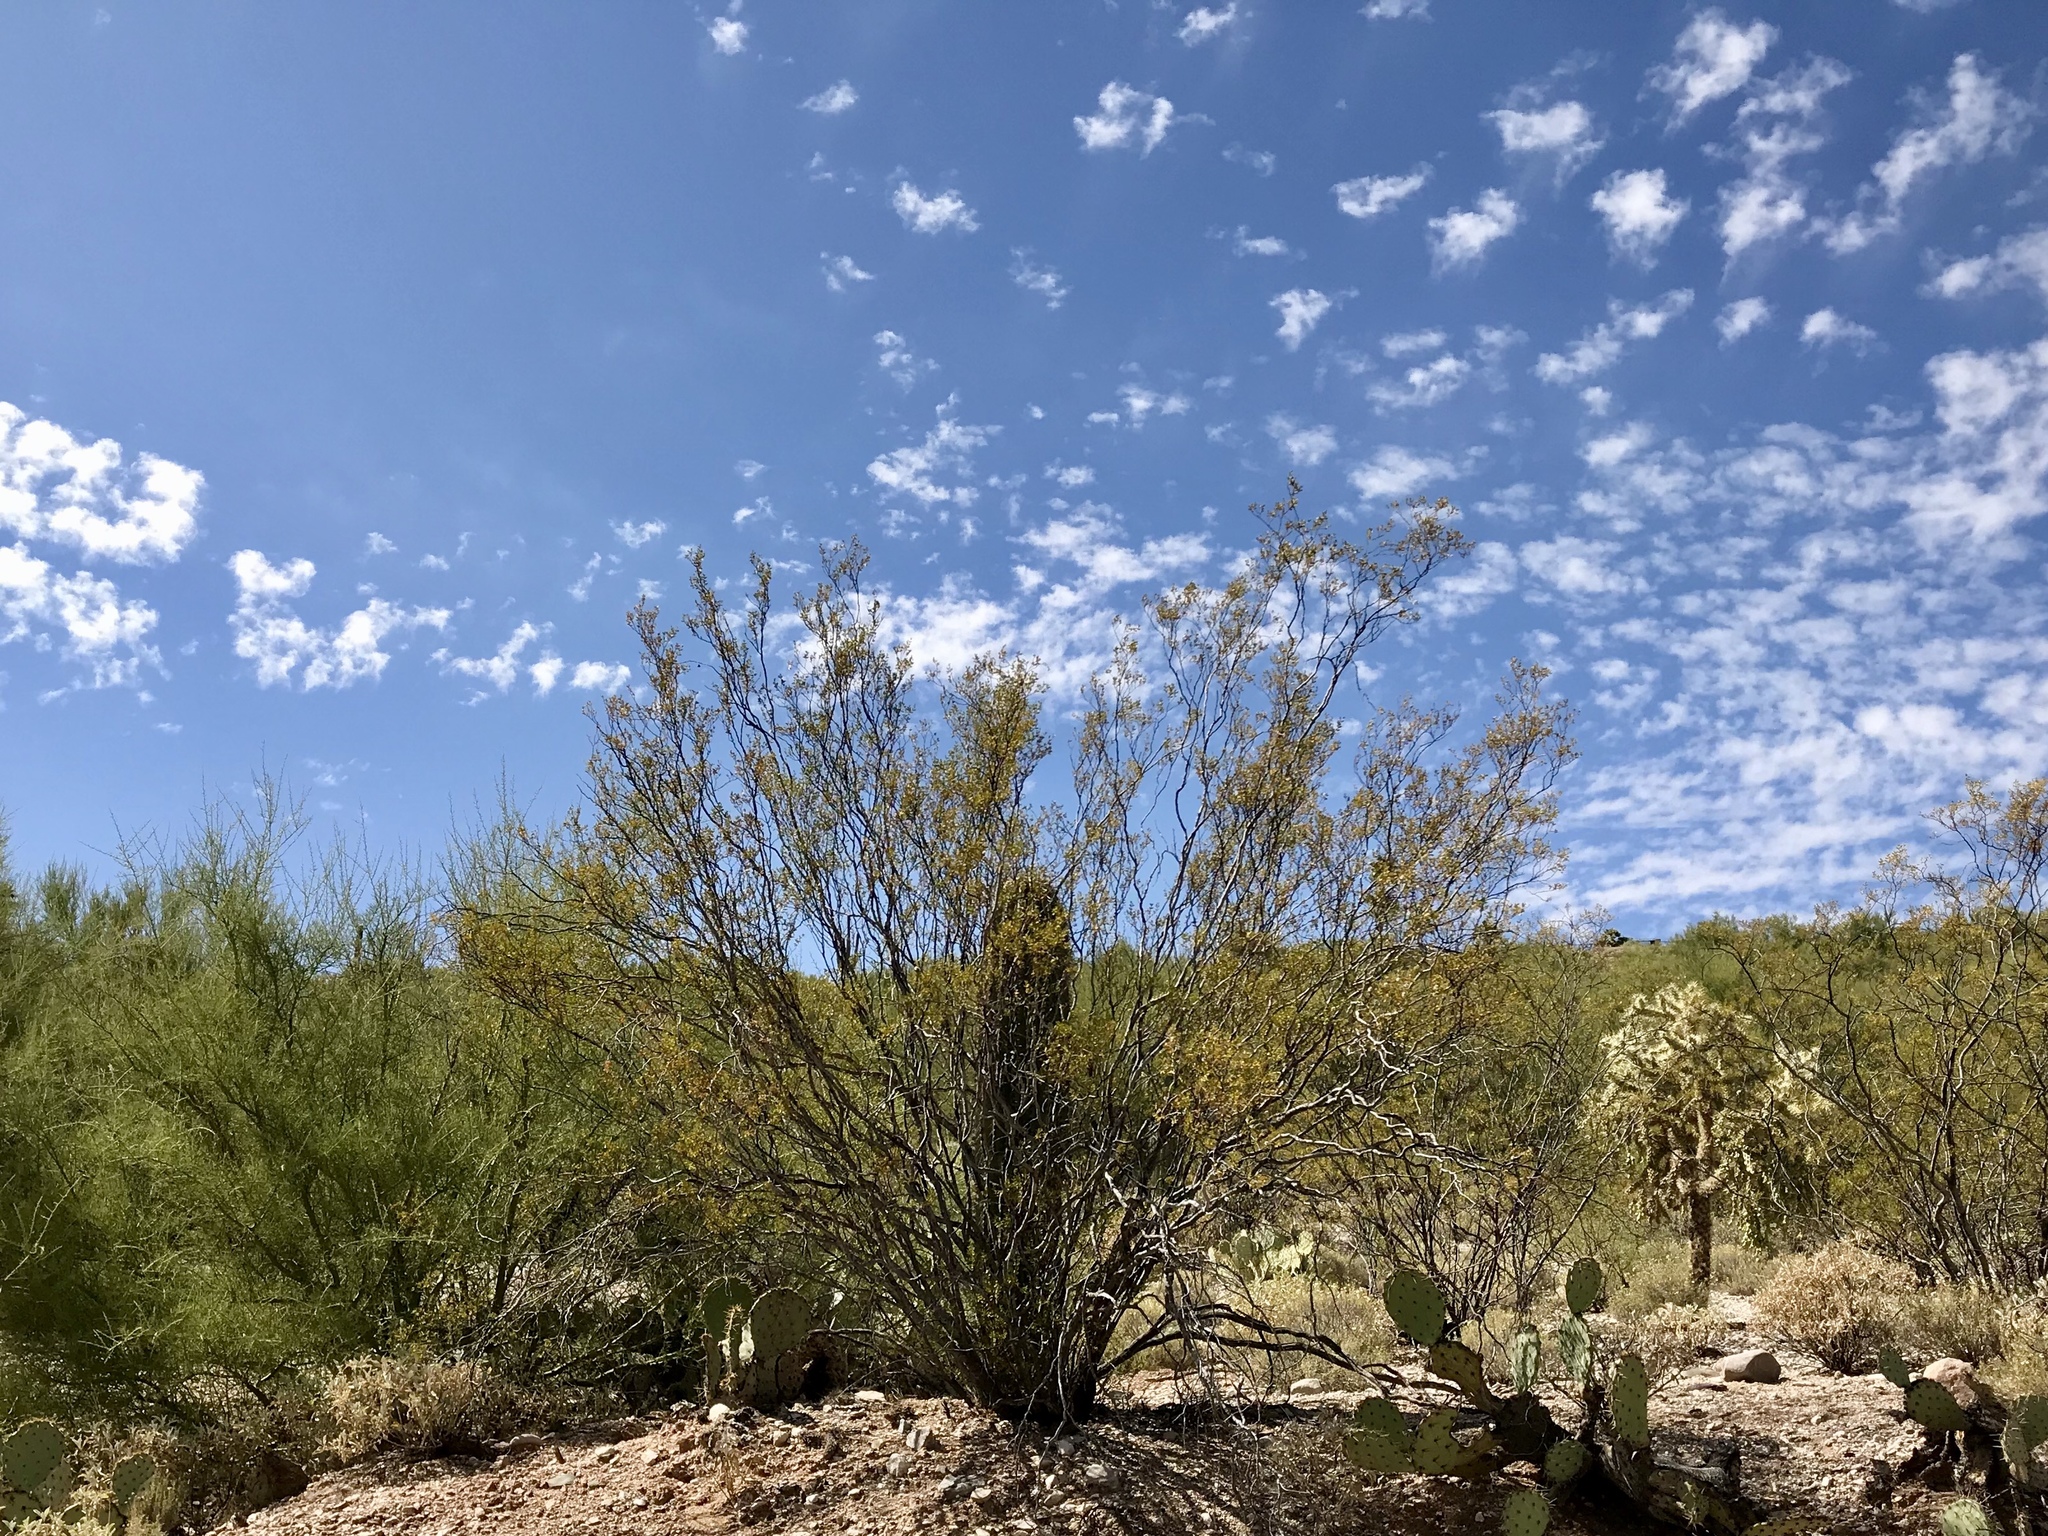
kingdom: Plantae
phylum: Tracheophyta
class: Magnoliopsida
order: Zygophyllales
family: Zygophyllaceae
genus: Larrea
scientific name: Larrea tridentata
